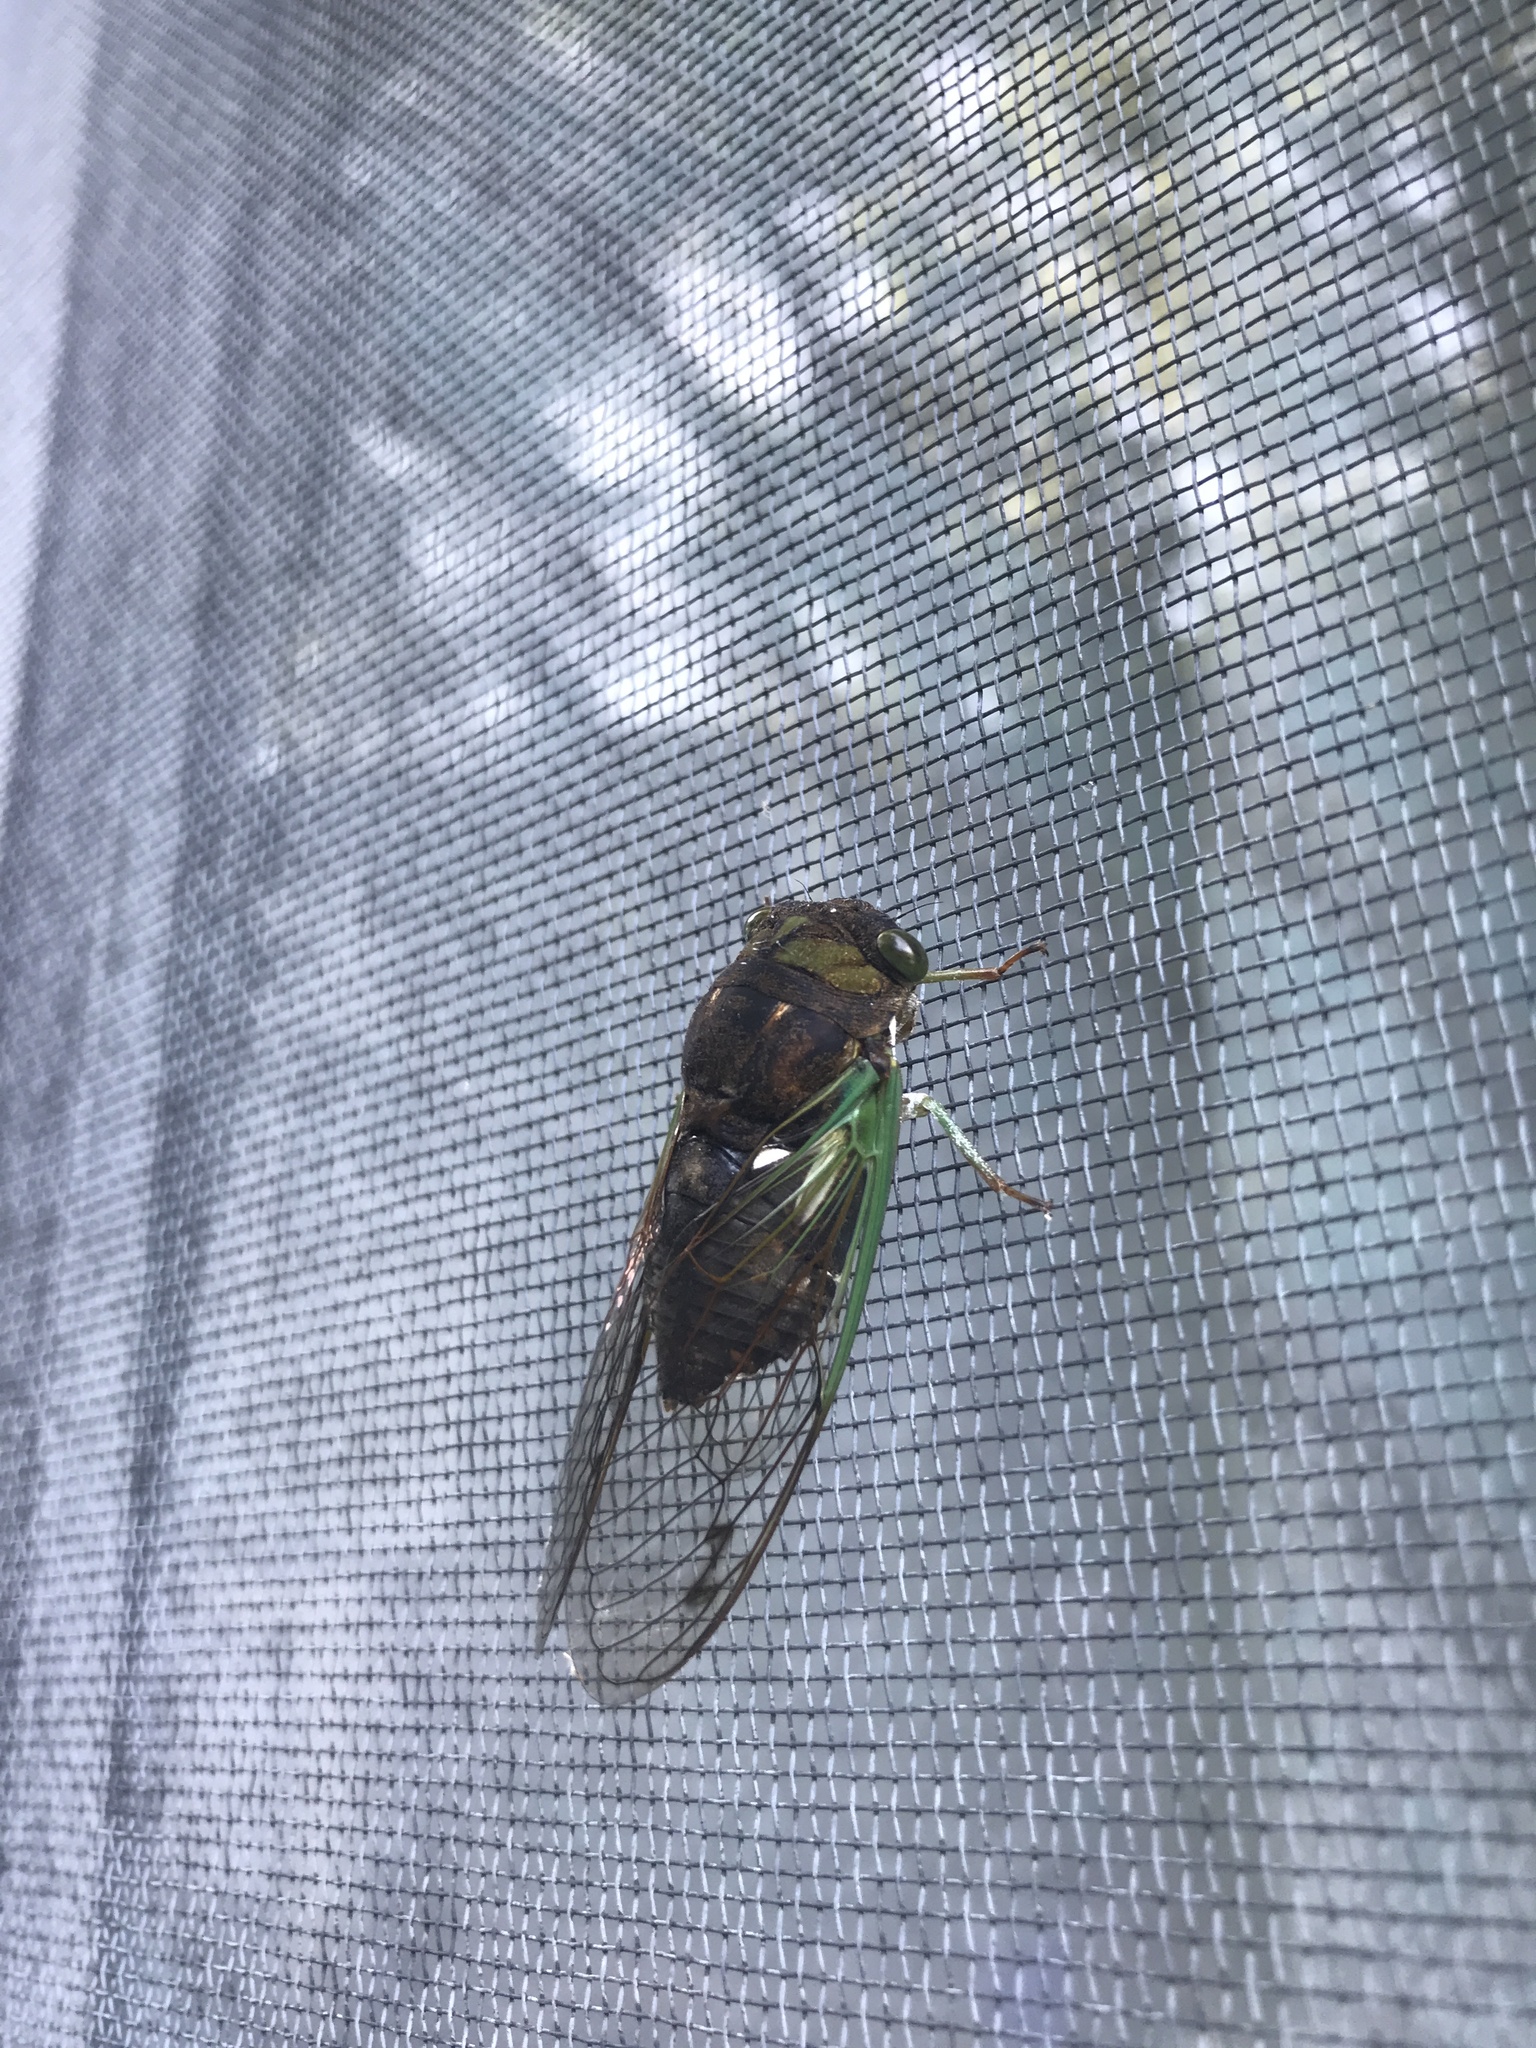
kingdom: Animalia
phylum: Arthropoda
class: Insecta
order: Hemiptera
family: Cicadidae
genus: Neotibicen
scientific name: Neotibicen tibicen
